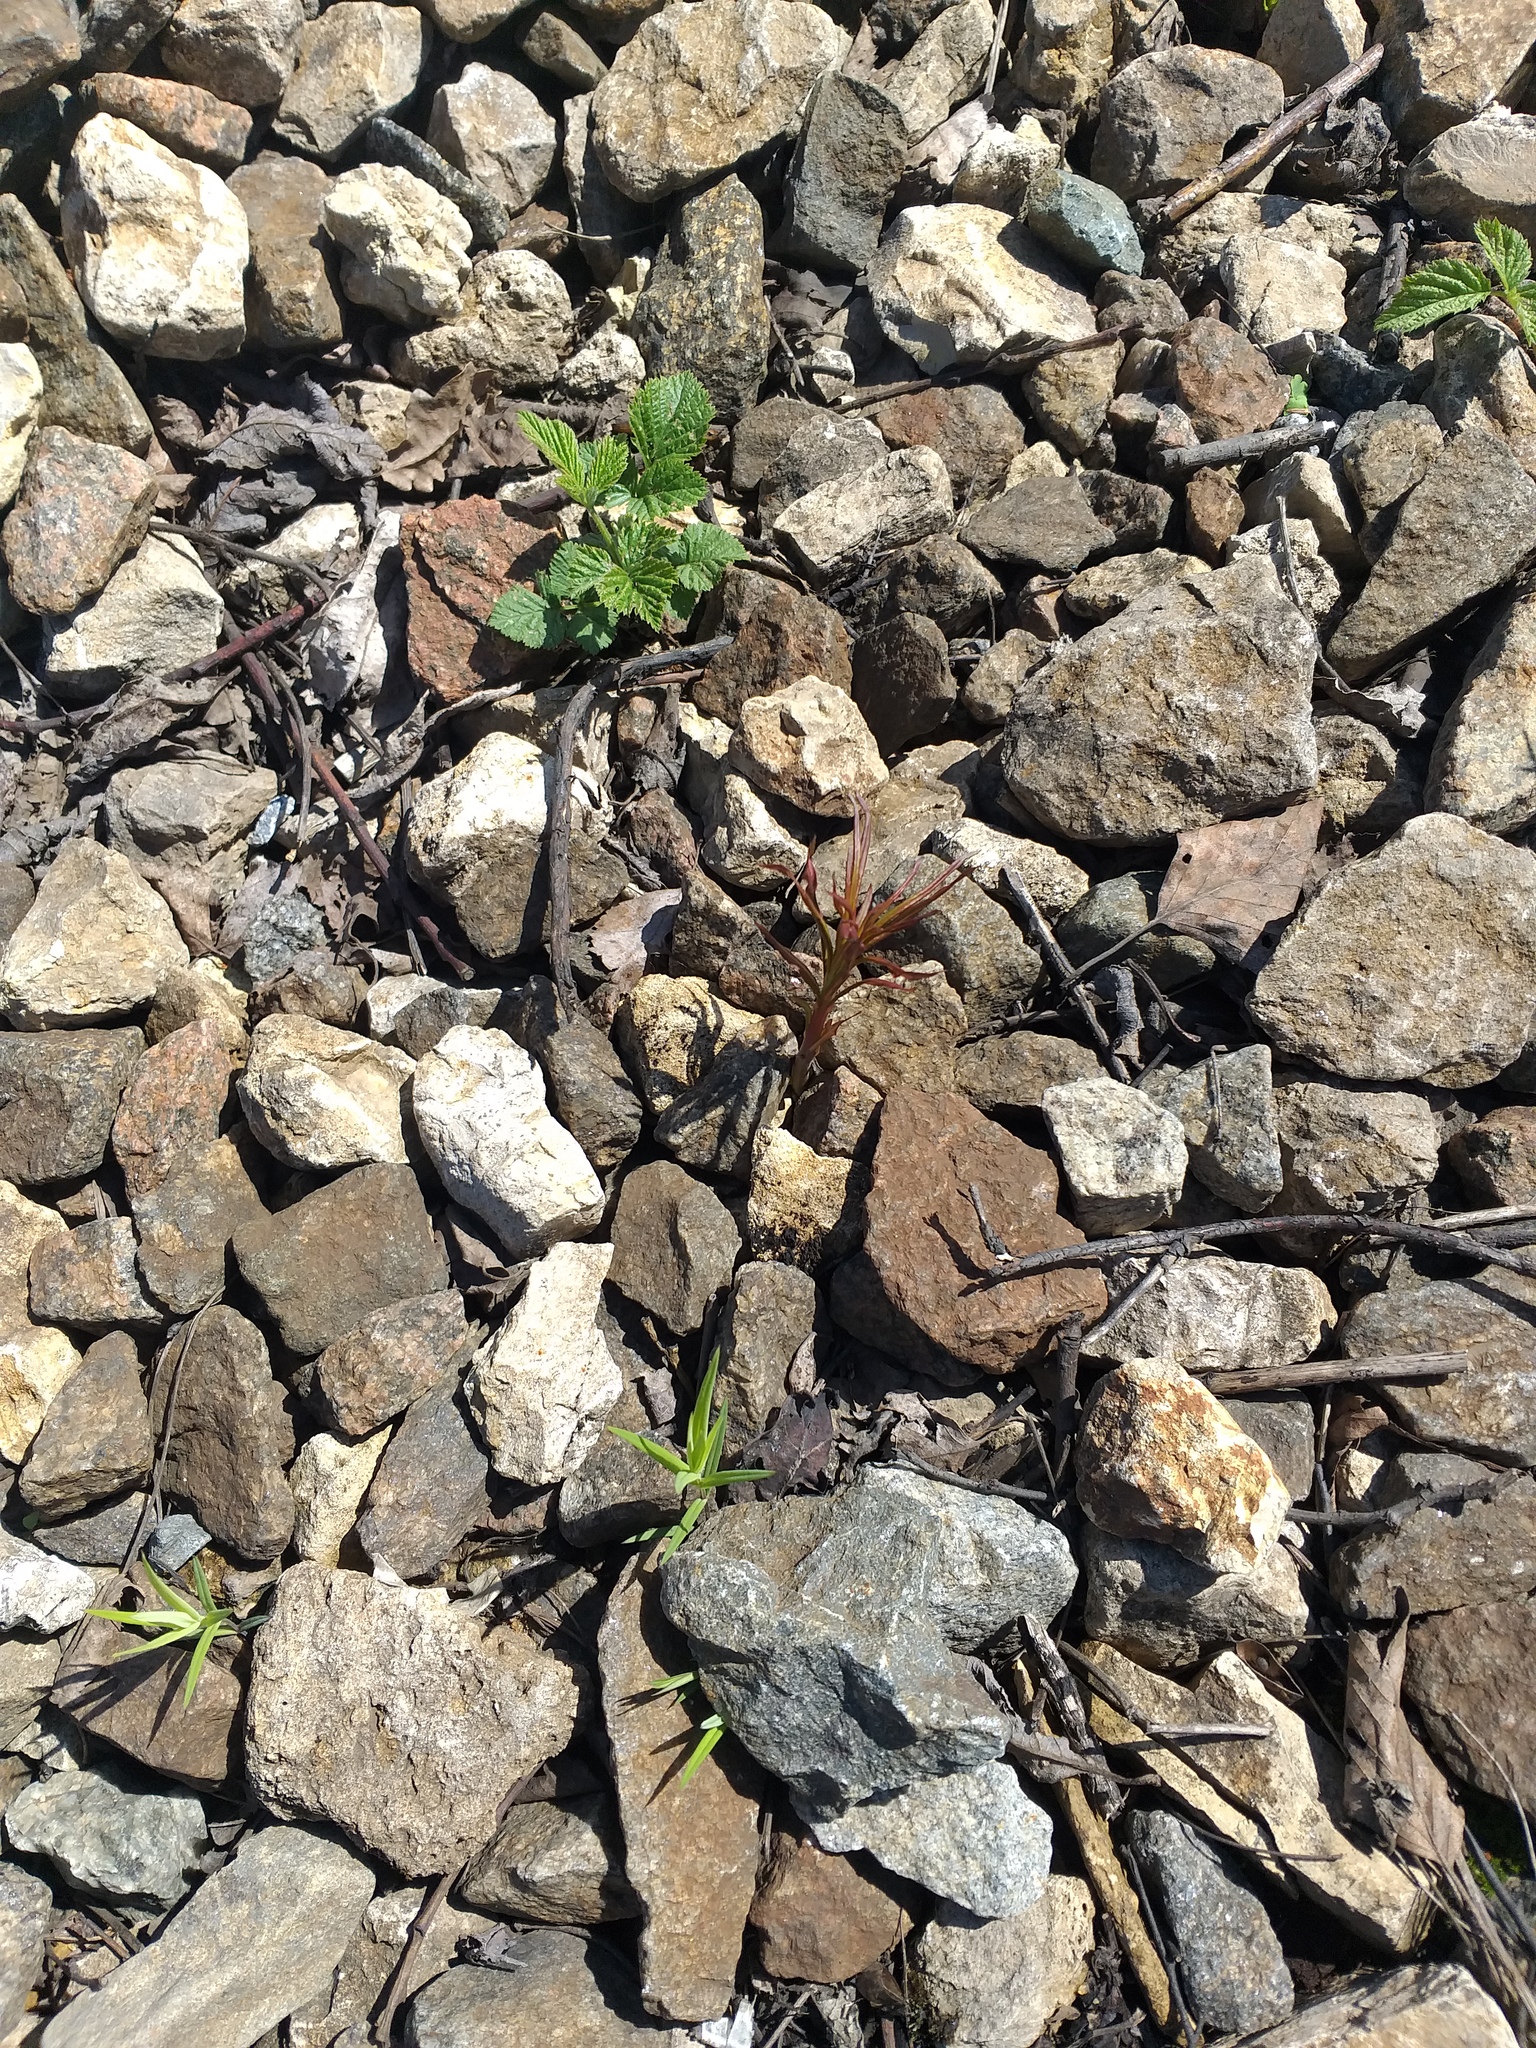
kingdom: Plantae
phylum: Tracheophyta
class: Magnoliopsida
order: Myrtales
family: Onagraceae
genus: Chamaenerion
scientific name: Chamaenerion angustifolium
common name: Fireweed
